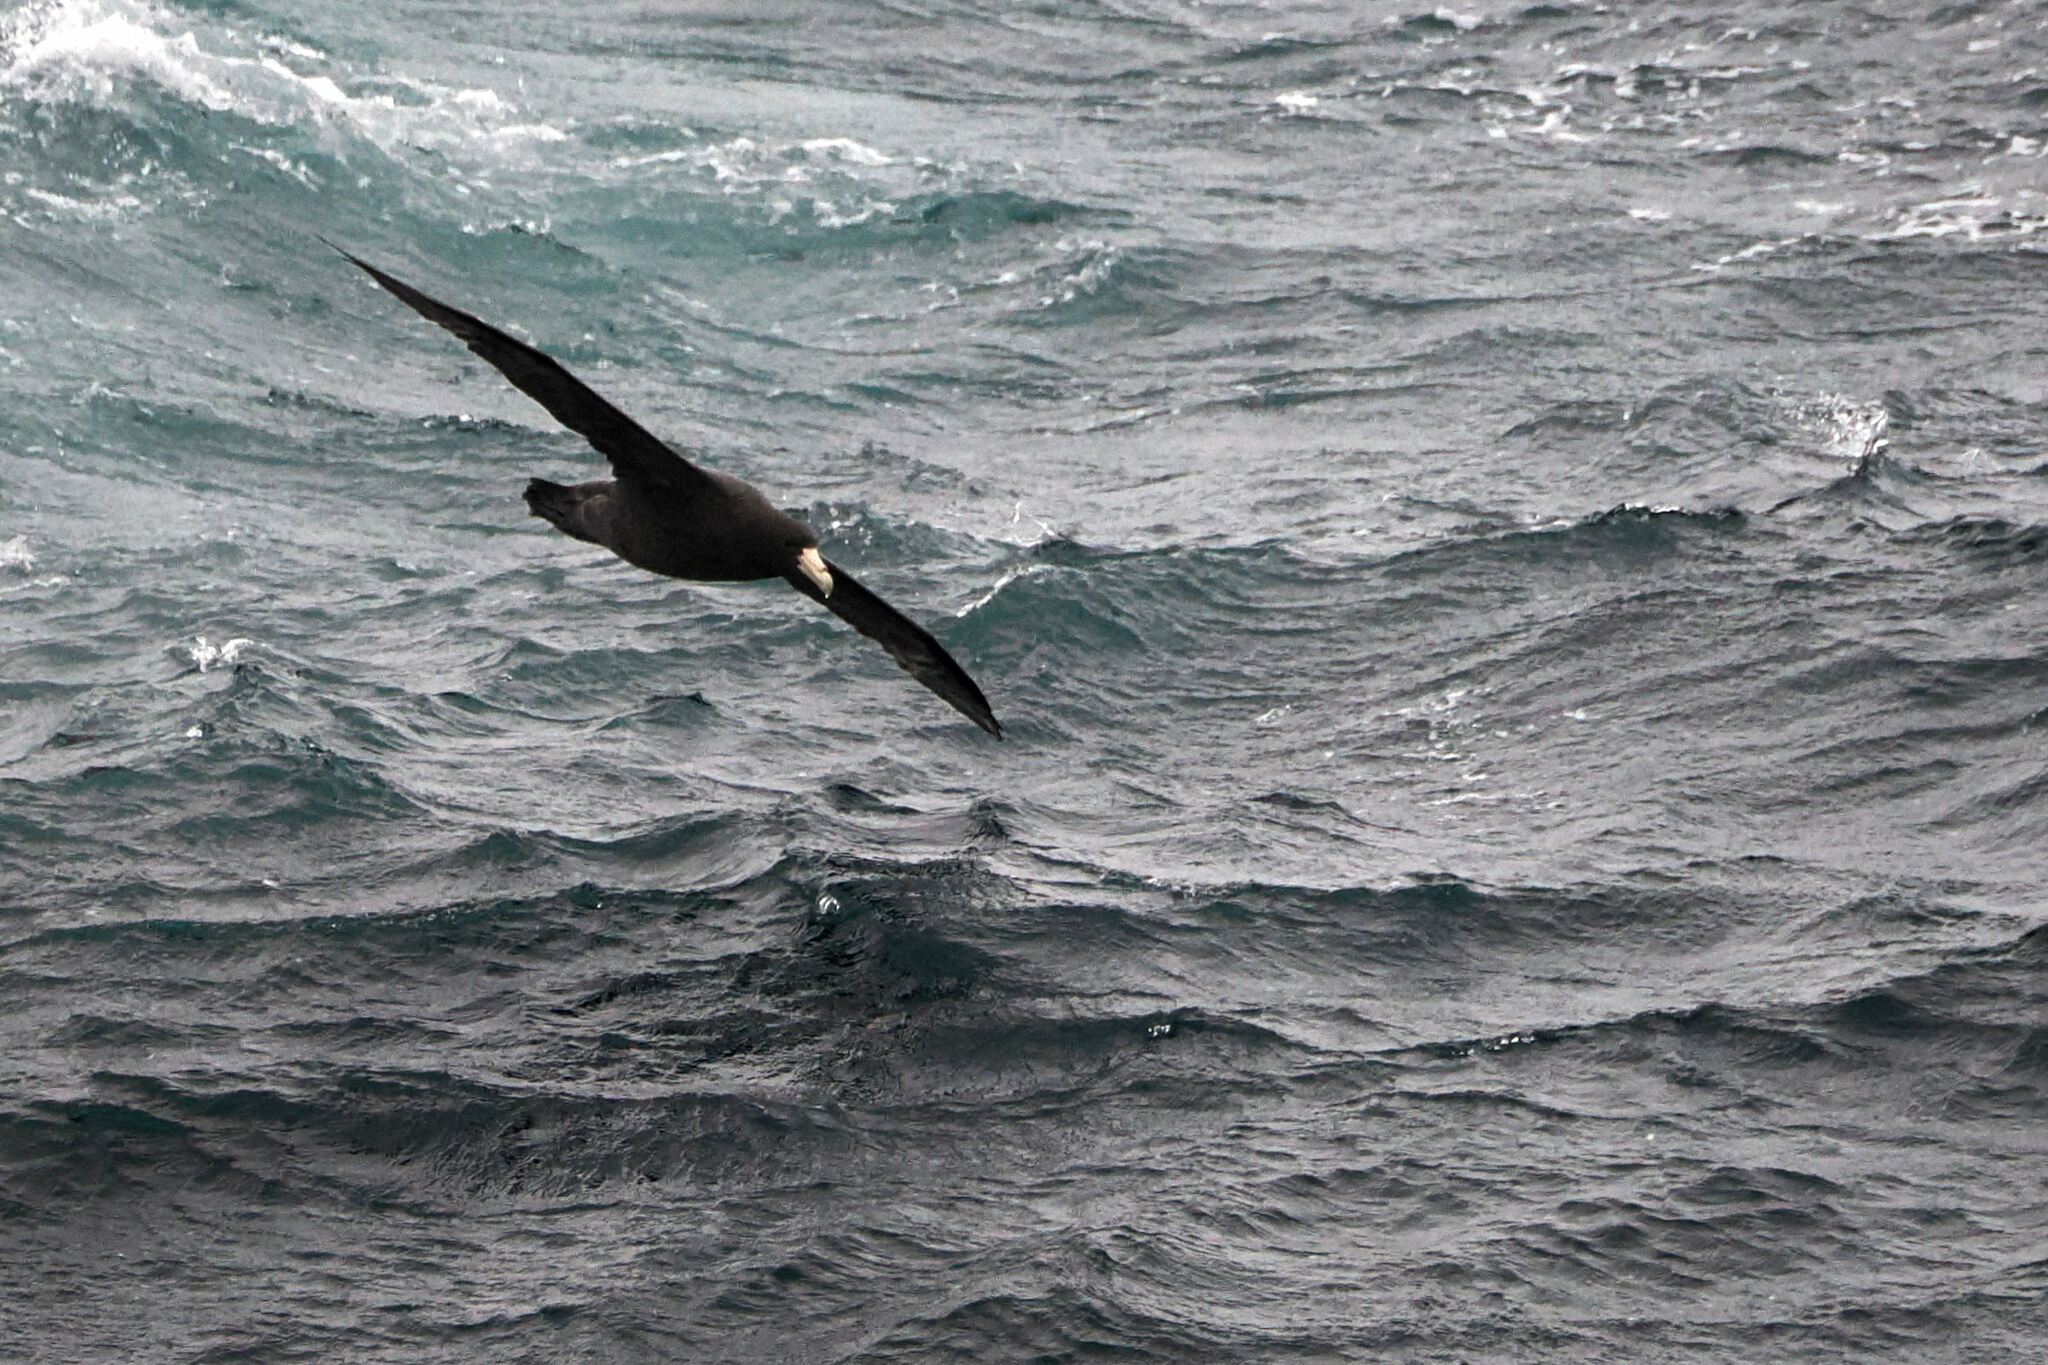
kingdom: Animalia
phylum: Chordata
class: Aves
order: Procellariiformes
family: Procellariidae
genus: Macronectes
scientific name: Macronectes giganteus
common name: Southern giant petrel
